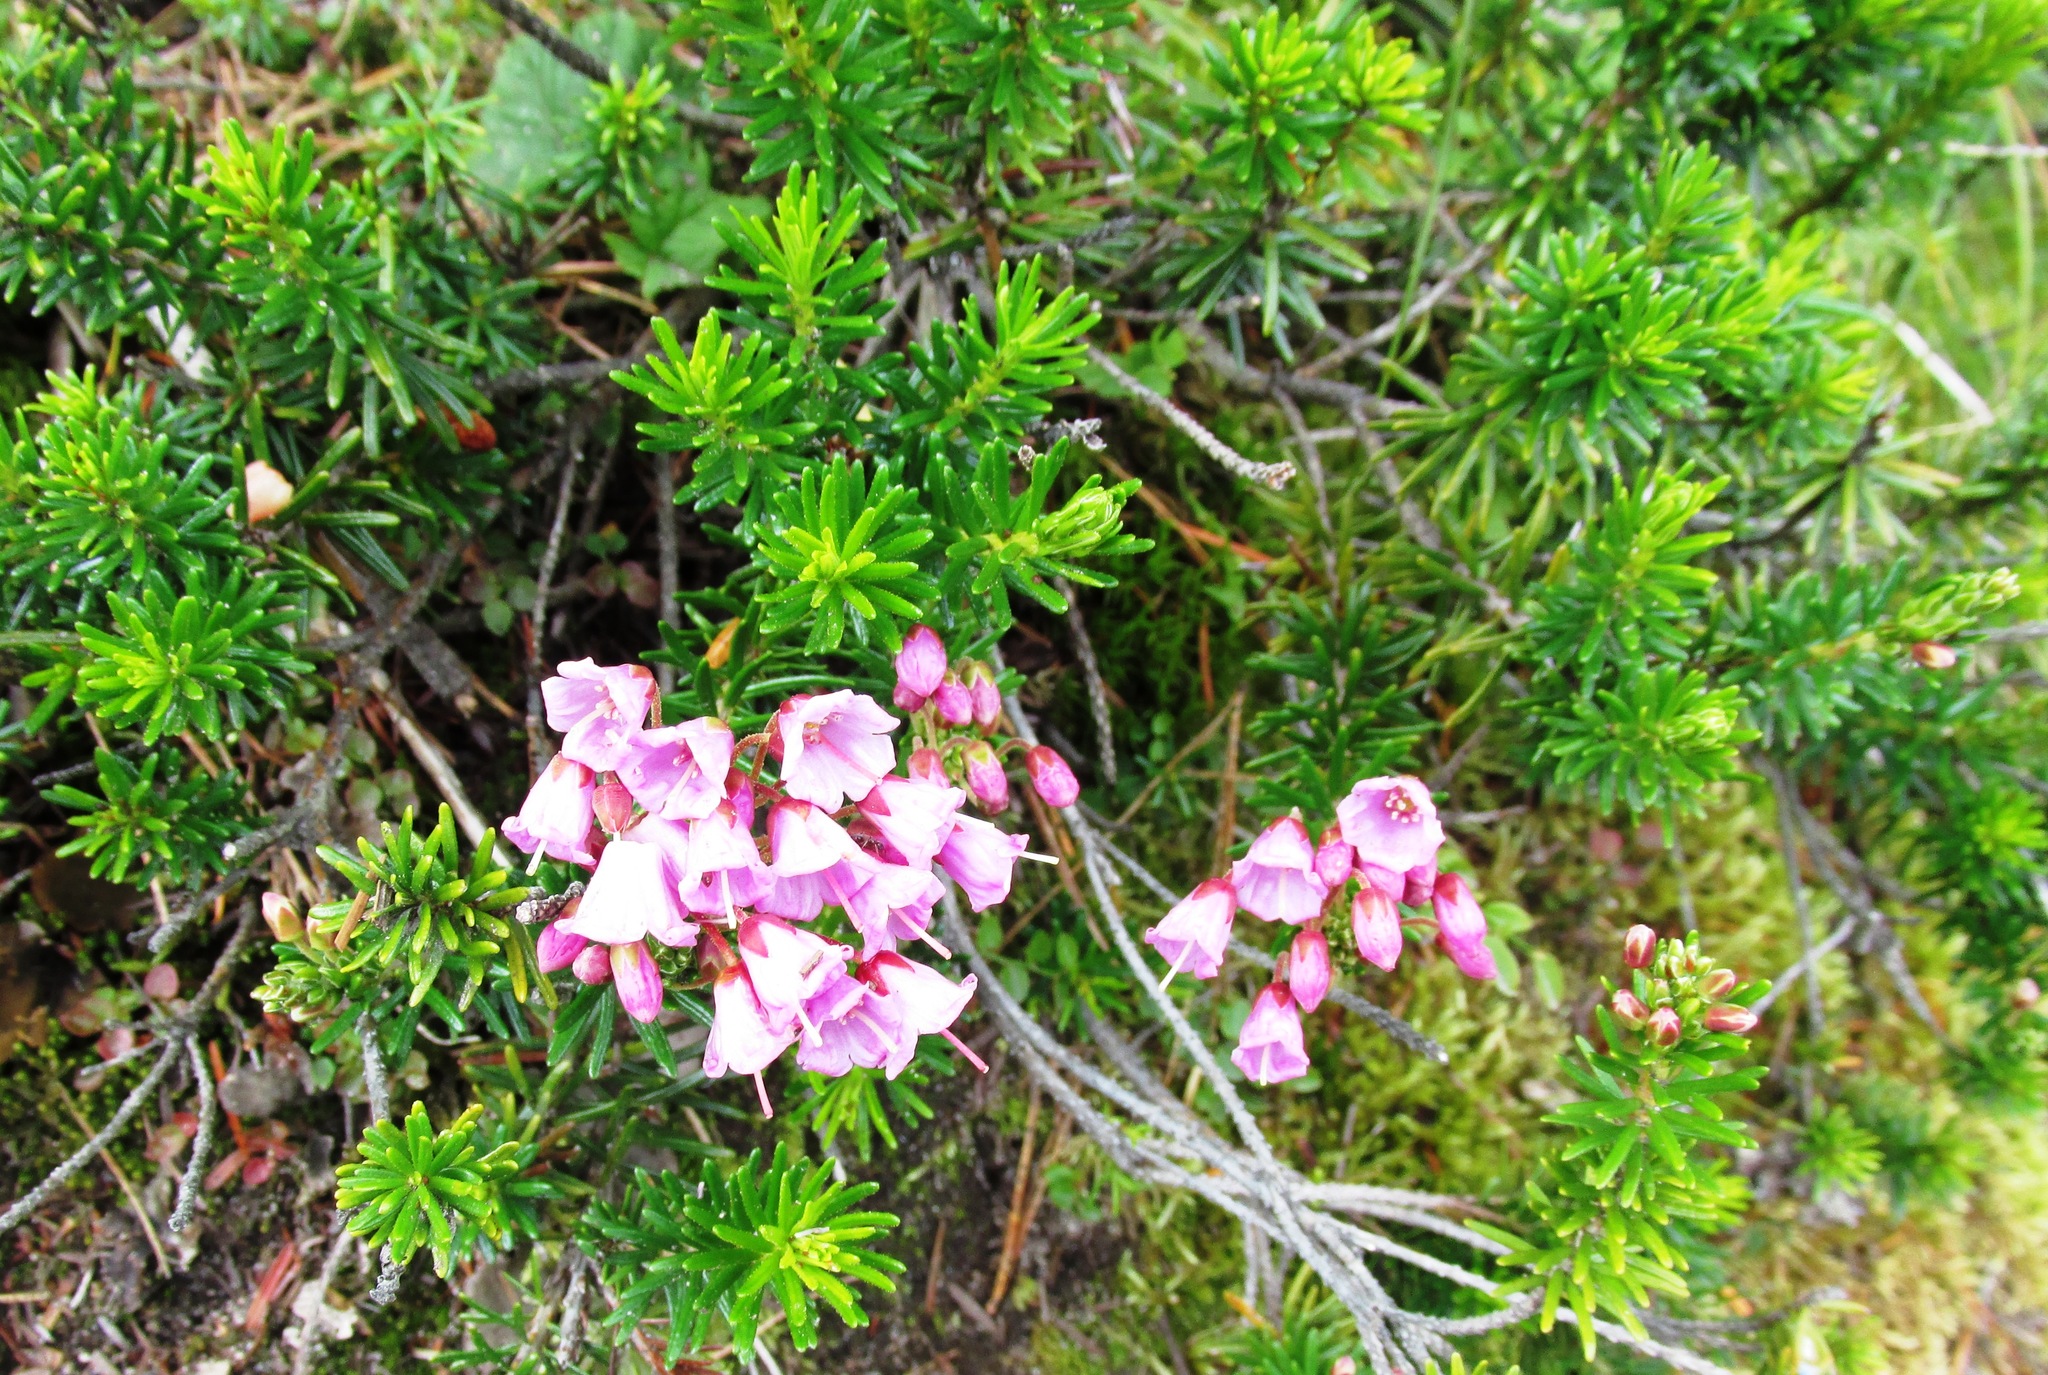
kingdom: Plantae
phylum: Tracheophyta
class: Magnoliopsida
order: Ericales
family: Ericaceae
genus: Phyllodoce
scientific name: Phyllodoce empetriformis
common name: Pink mountain heather
